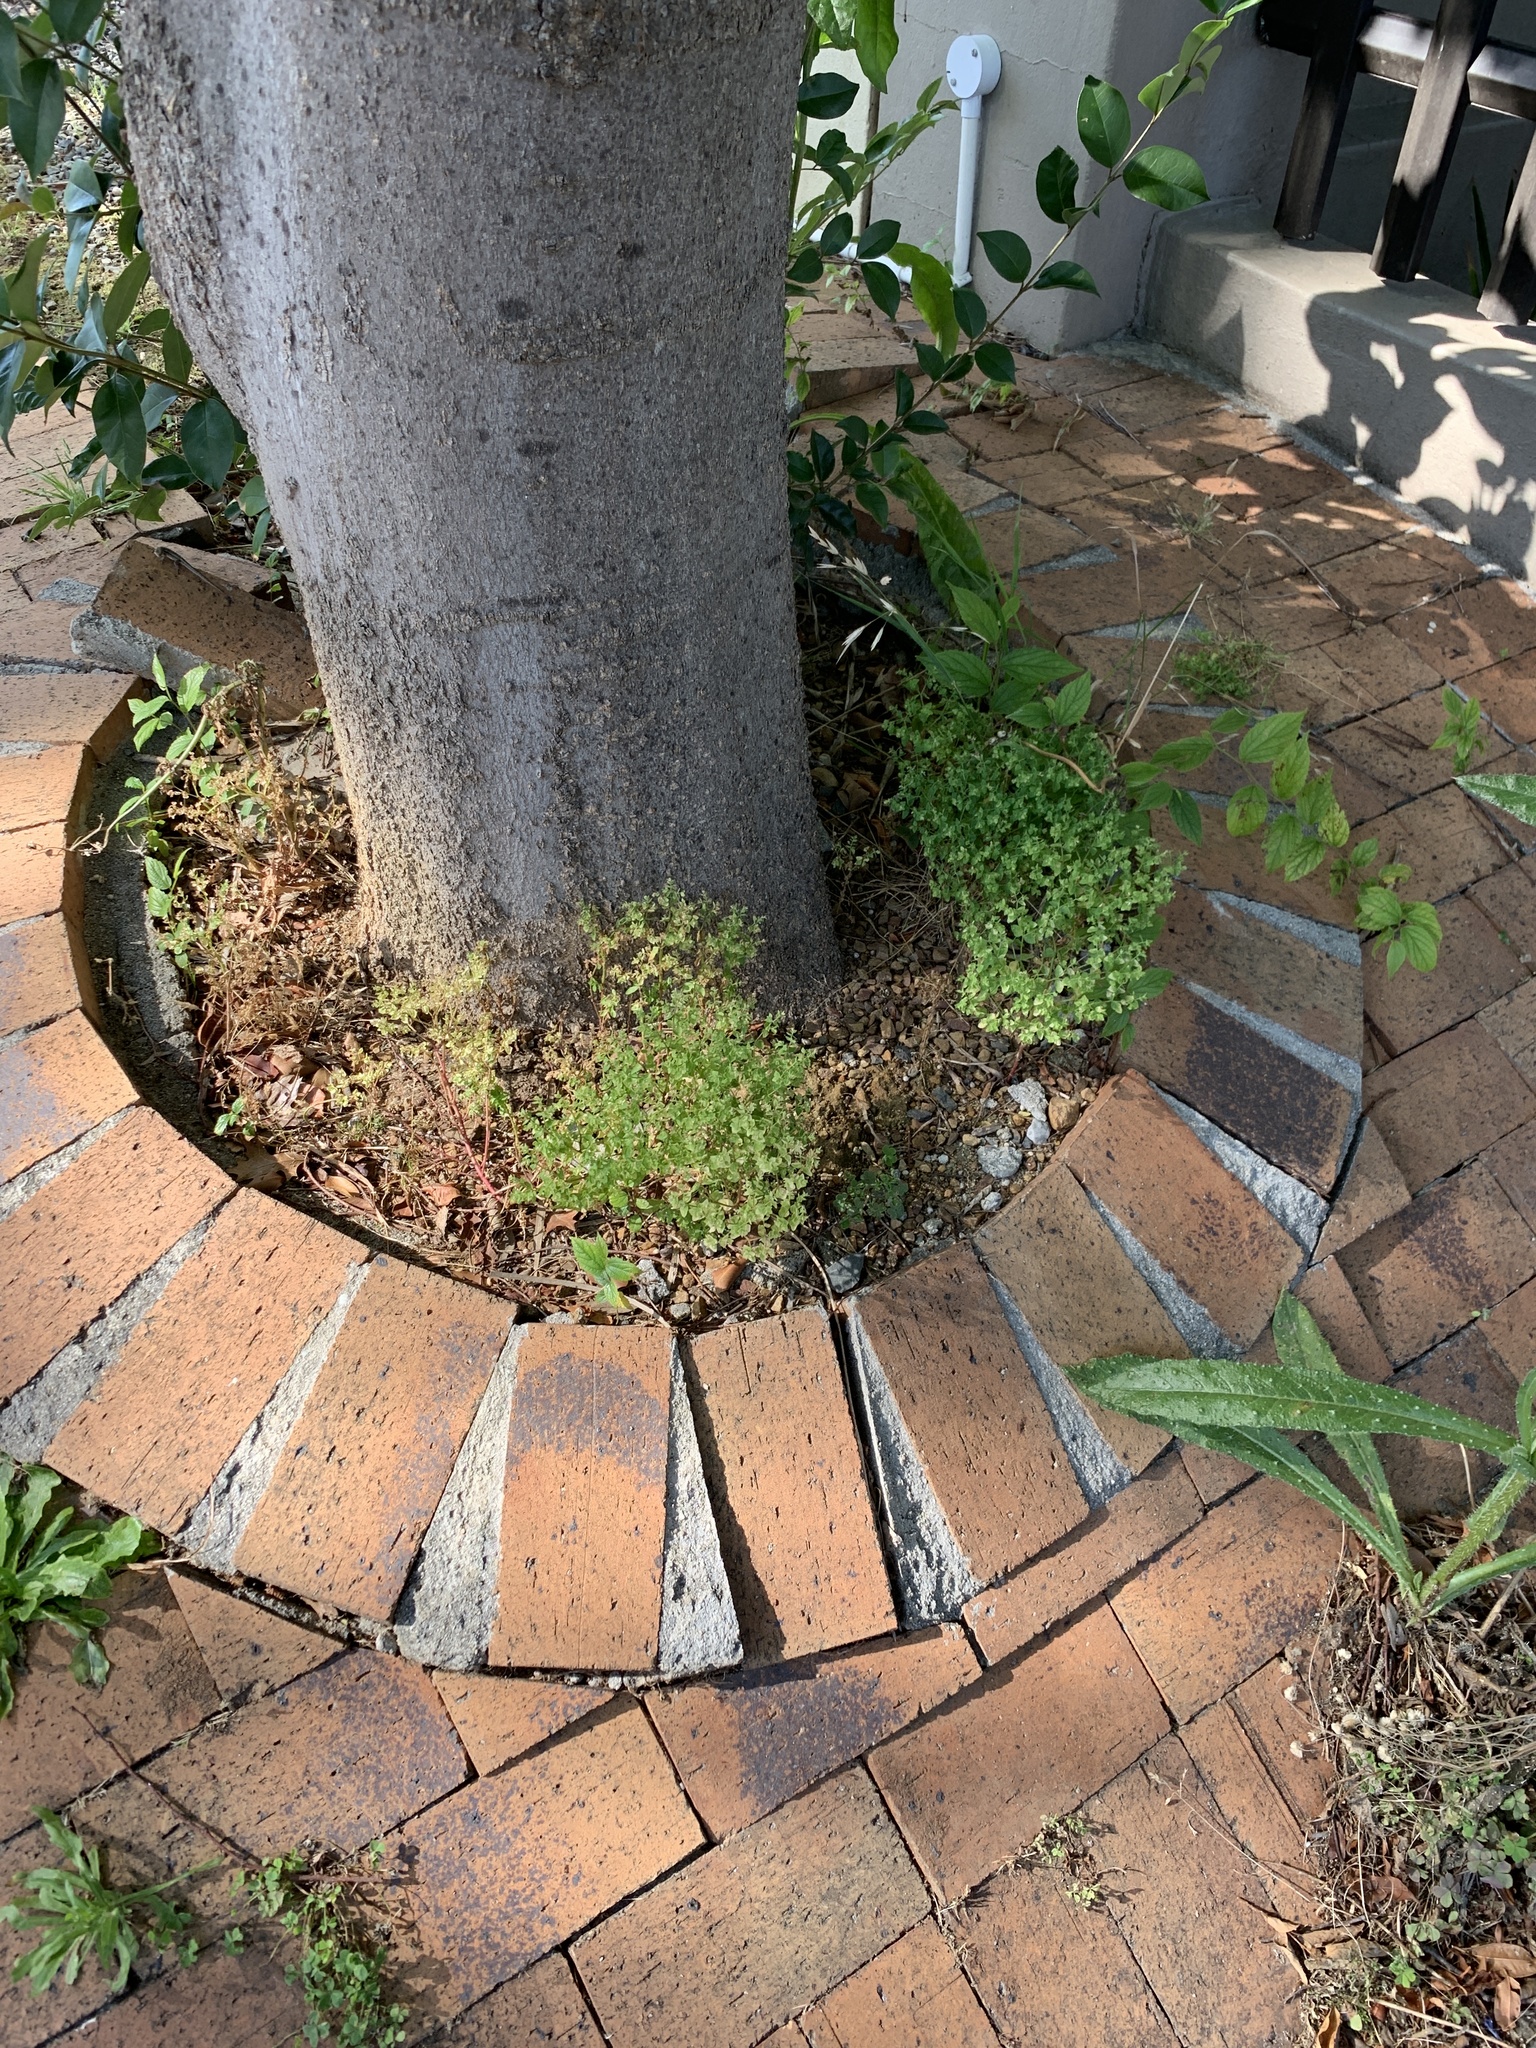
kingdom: Plantae
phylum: Tracheophyta
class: Magnoliopsida
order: Malpighiales
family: Euphorbiaceae
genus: Euphorbia
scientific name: Euphorbia peplus
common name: Petty spurge
